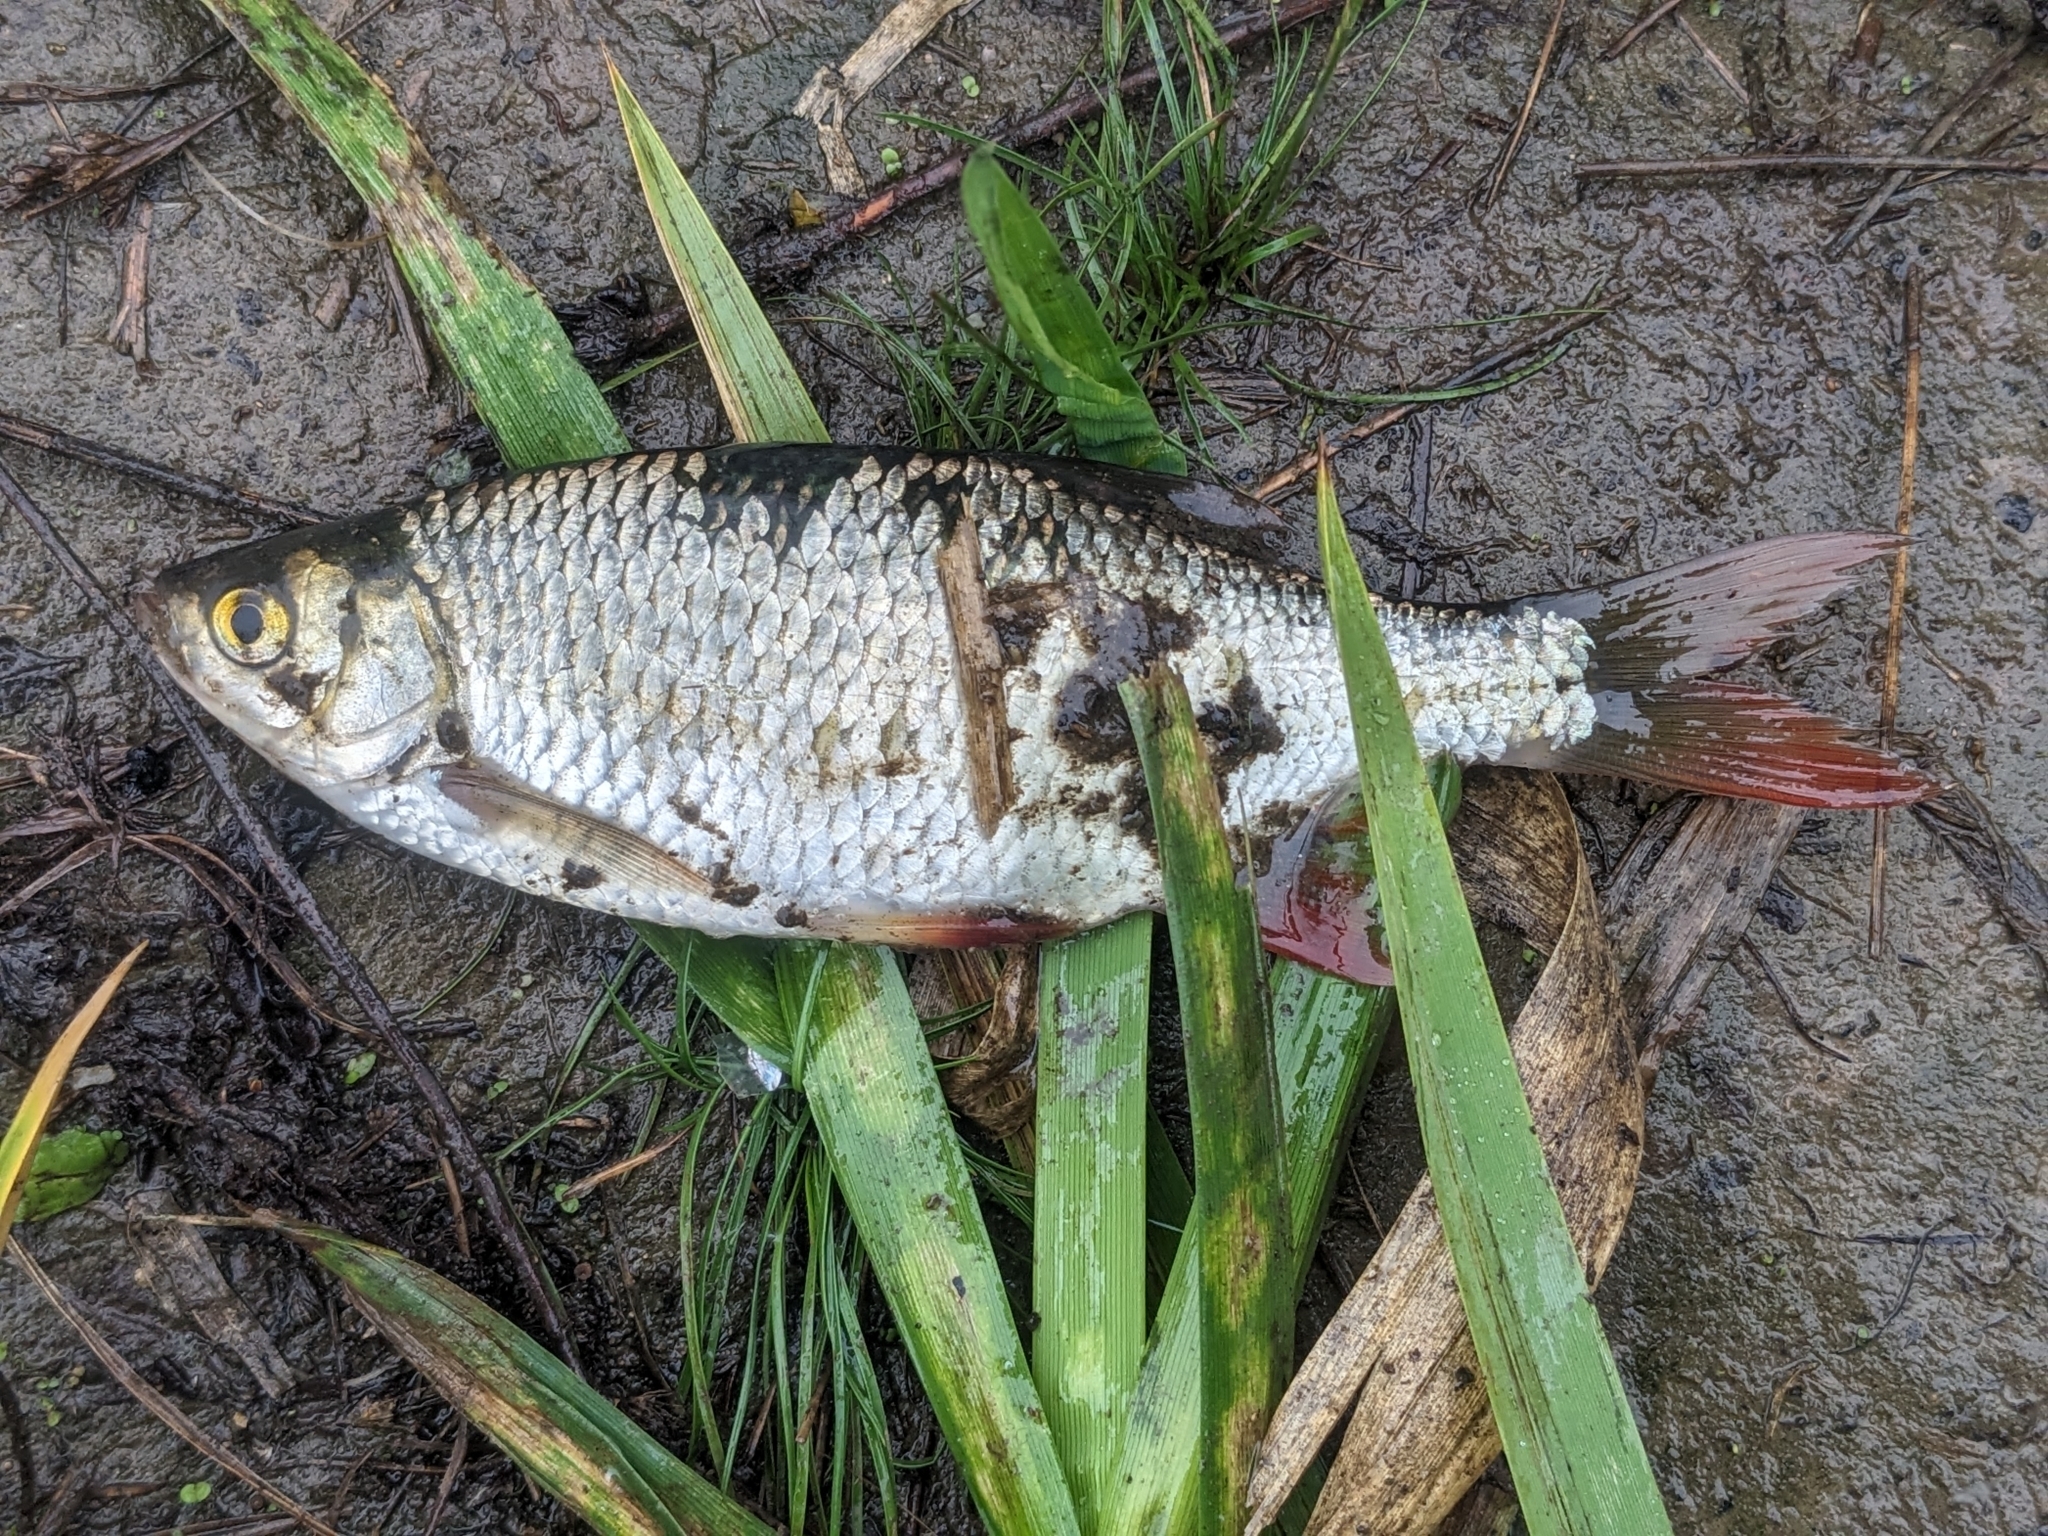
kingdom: Animalia
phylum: Chordata
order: Cypriniformes
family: Cyprinidae
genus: Scardinius
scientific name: Scardinius erythrophthalmus
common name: Rudd
